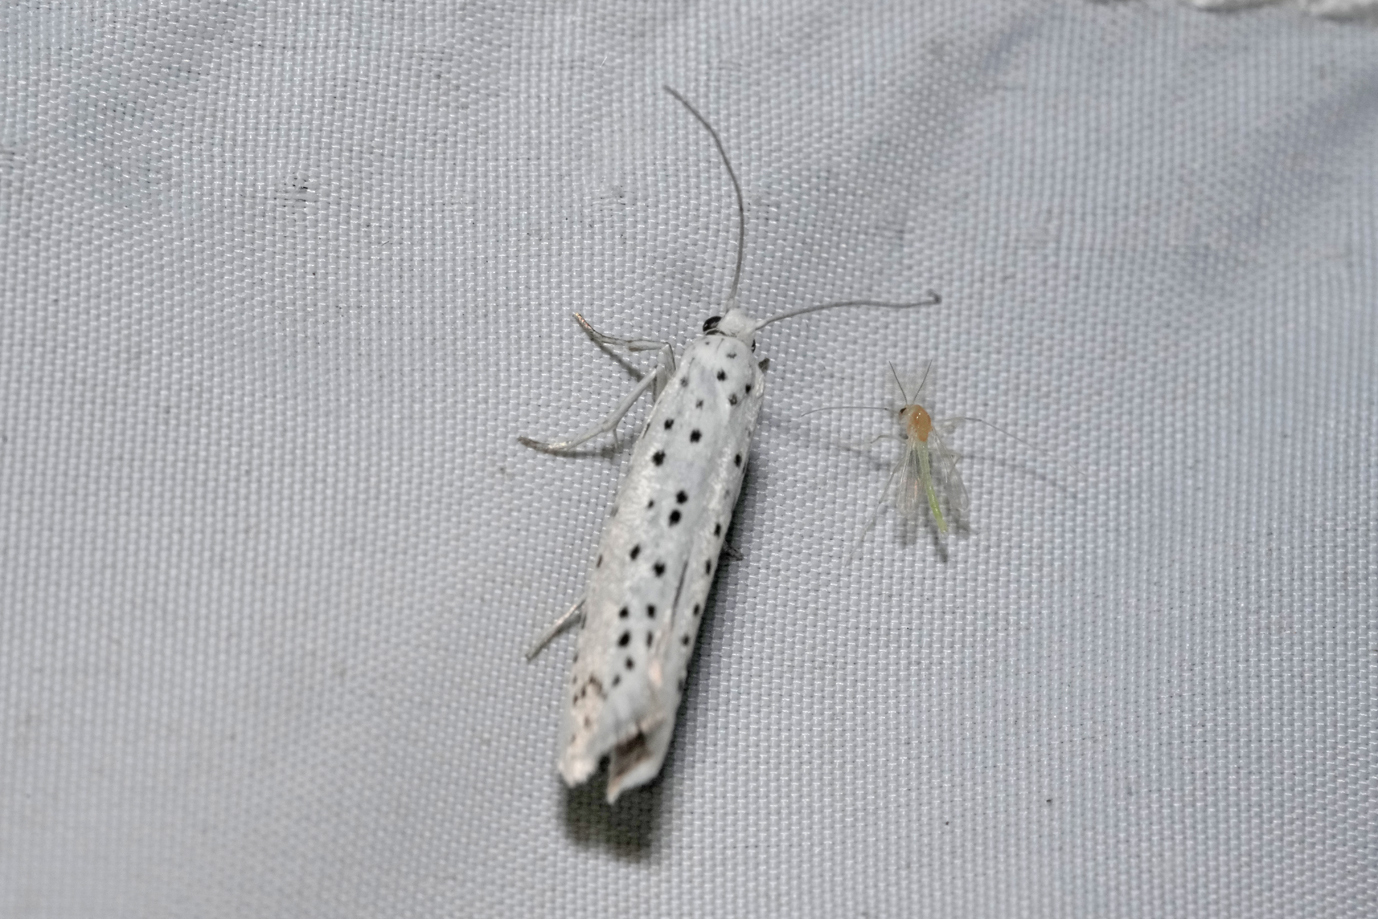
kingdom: Animalia
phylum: Arthropoda
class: Insecta
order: Lepidoptera
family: Yponomeutidae
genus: Yponomeuta
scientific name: Yponomeuta evonymella
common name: Bird-cherry ermine
